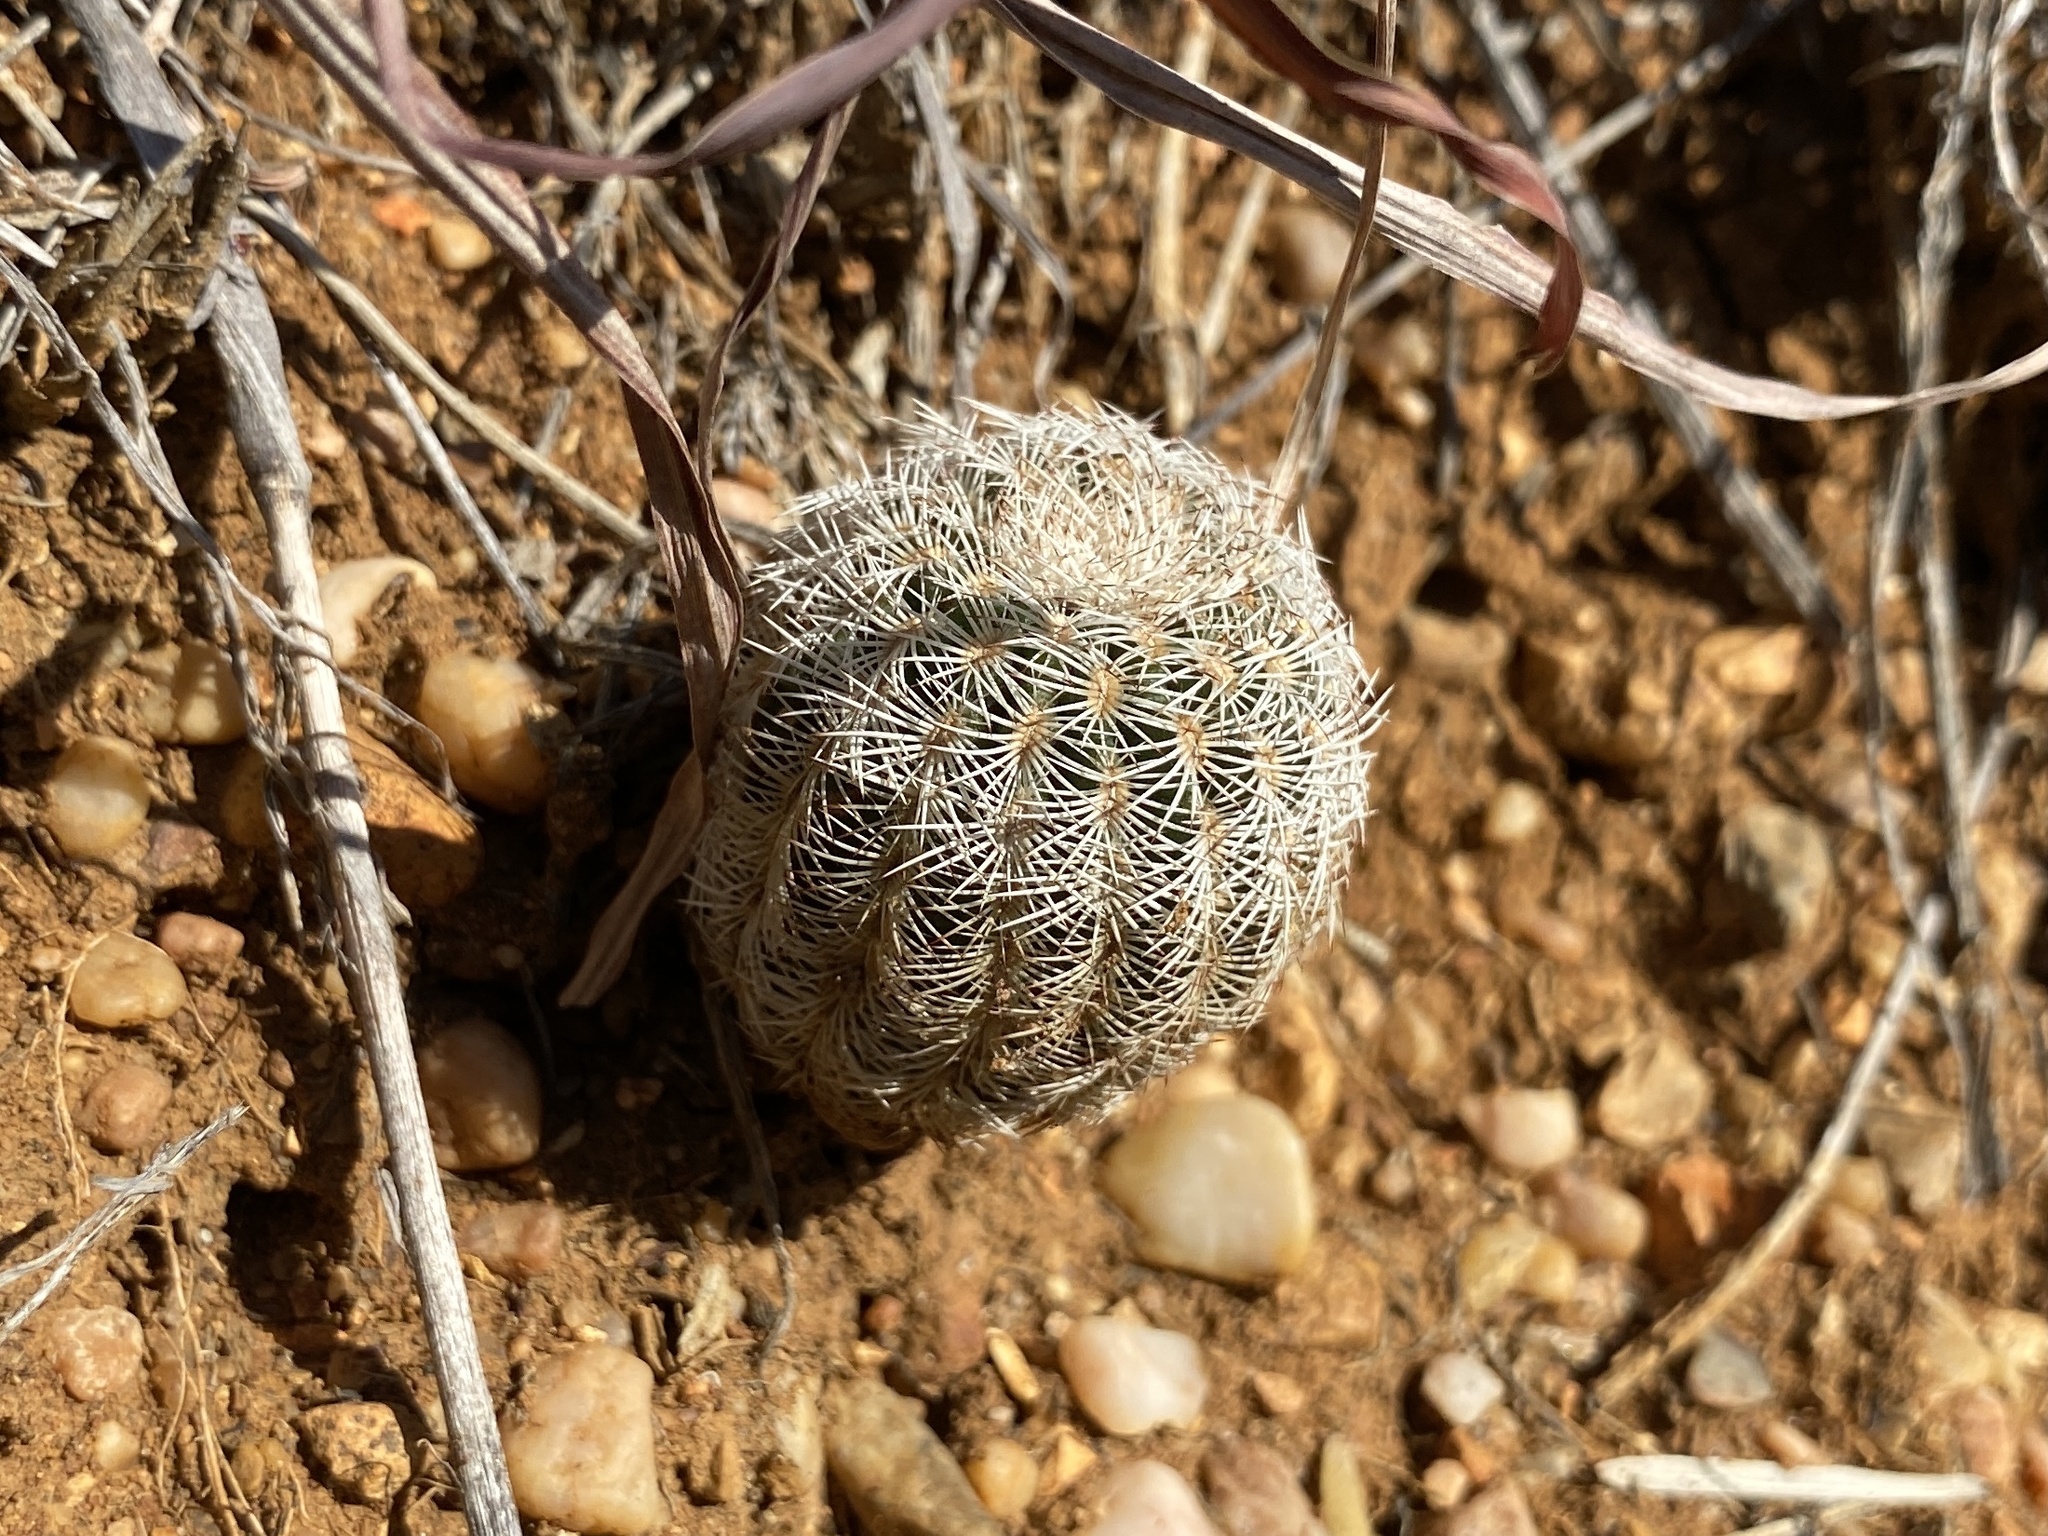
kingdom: Plantae
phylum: Tracheophyta
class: Magnoliopsida
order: Caryophyllales
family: Cactaceae
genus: Echinocereus
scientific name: Echinocereus reichenbachii
